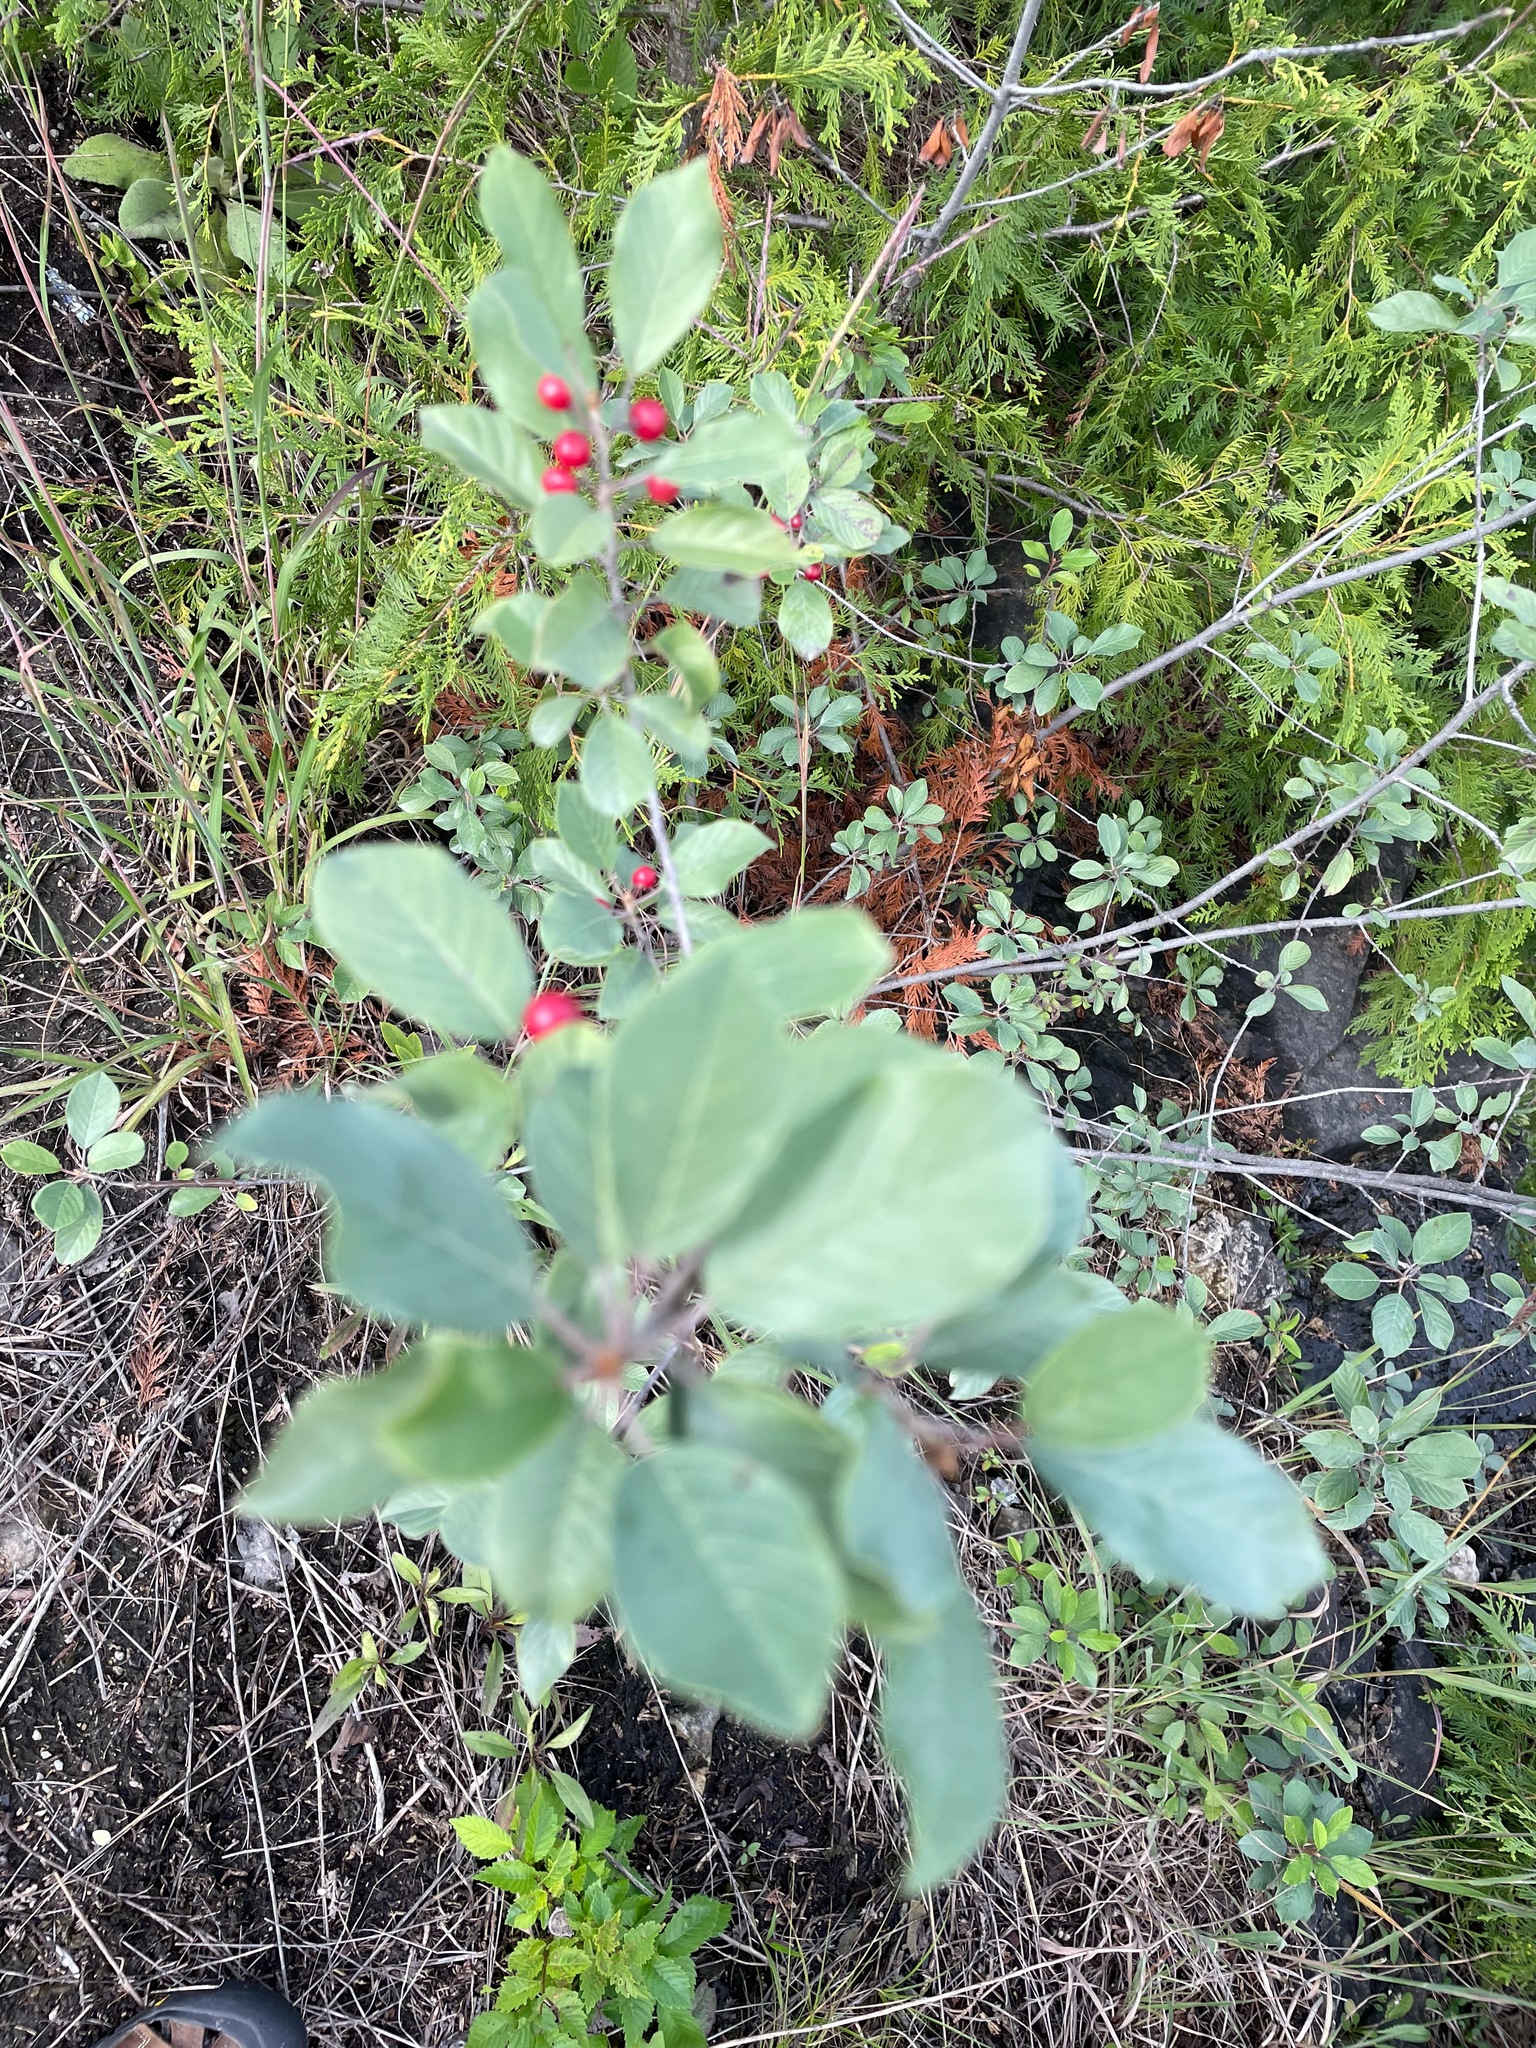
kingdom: Plantae
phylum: Tracheophyta
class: Magnoliopsida
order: Rosales
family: Rhamnaceae
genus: Frangula
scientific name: Frangula alnus
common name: Alder buckthorn
